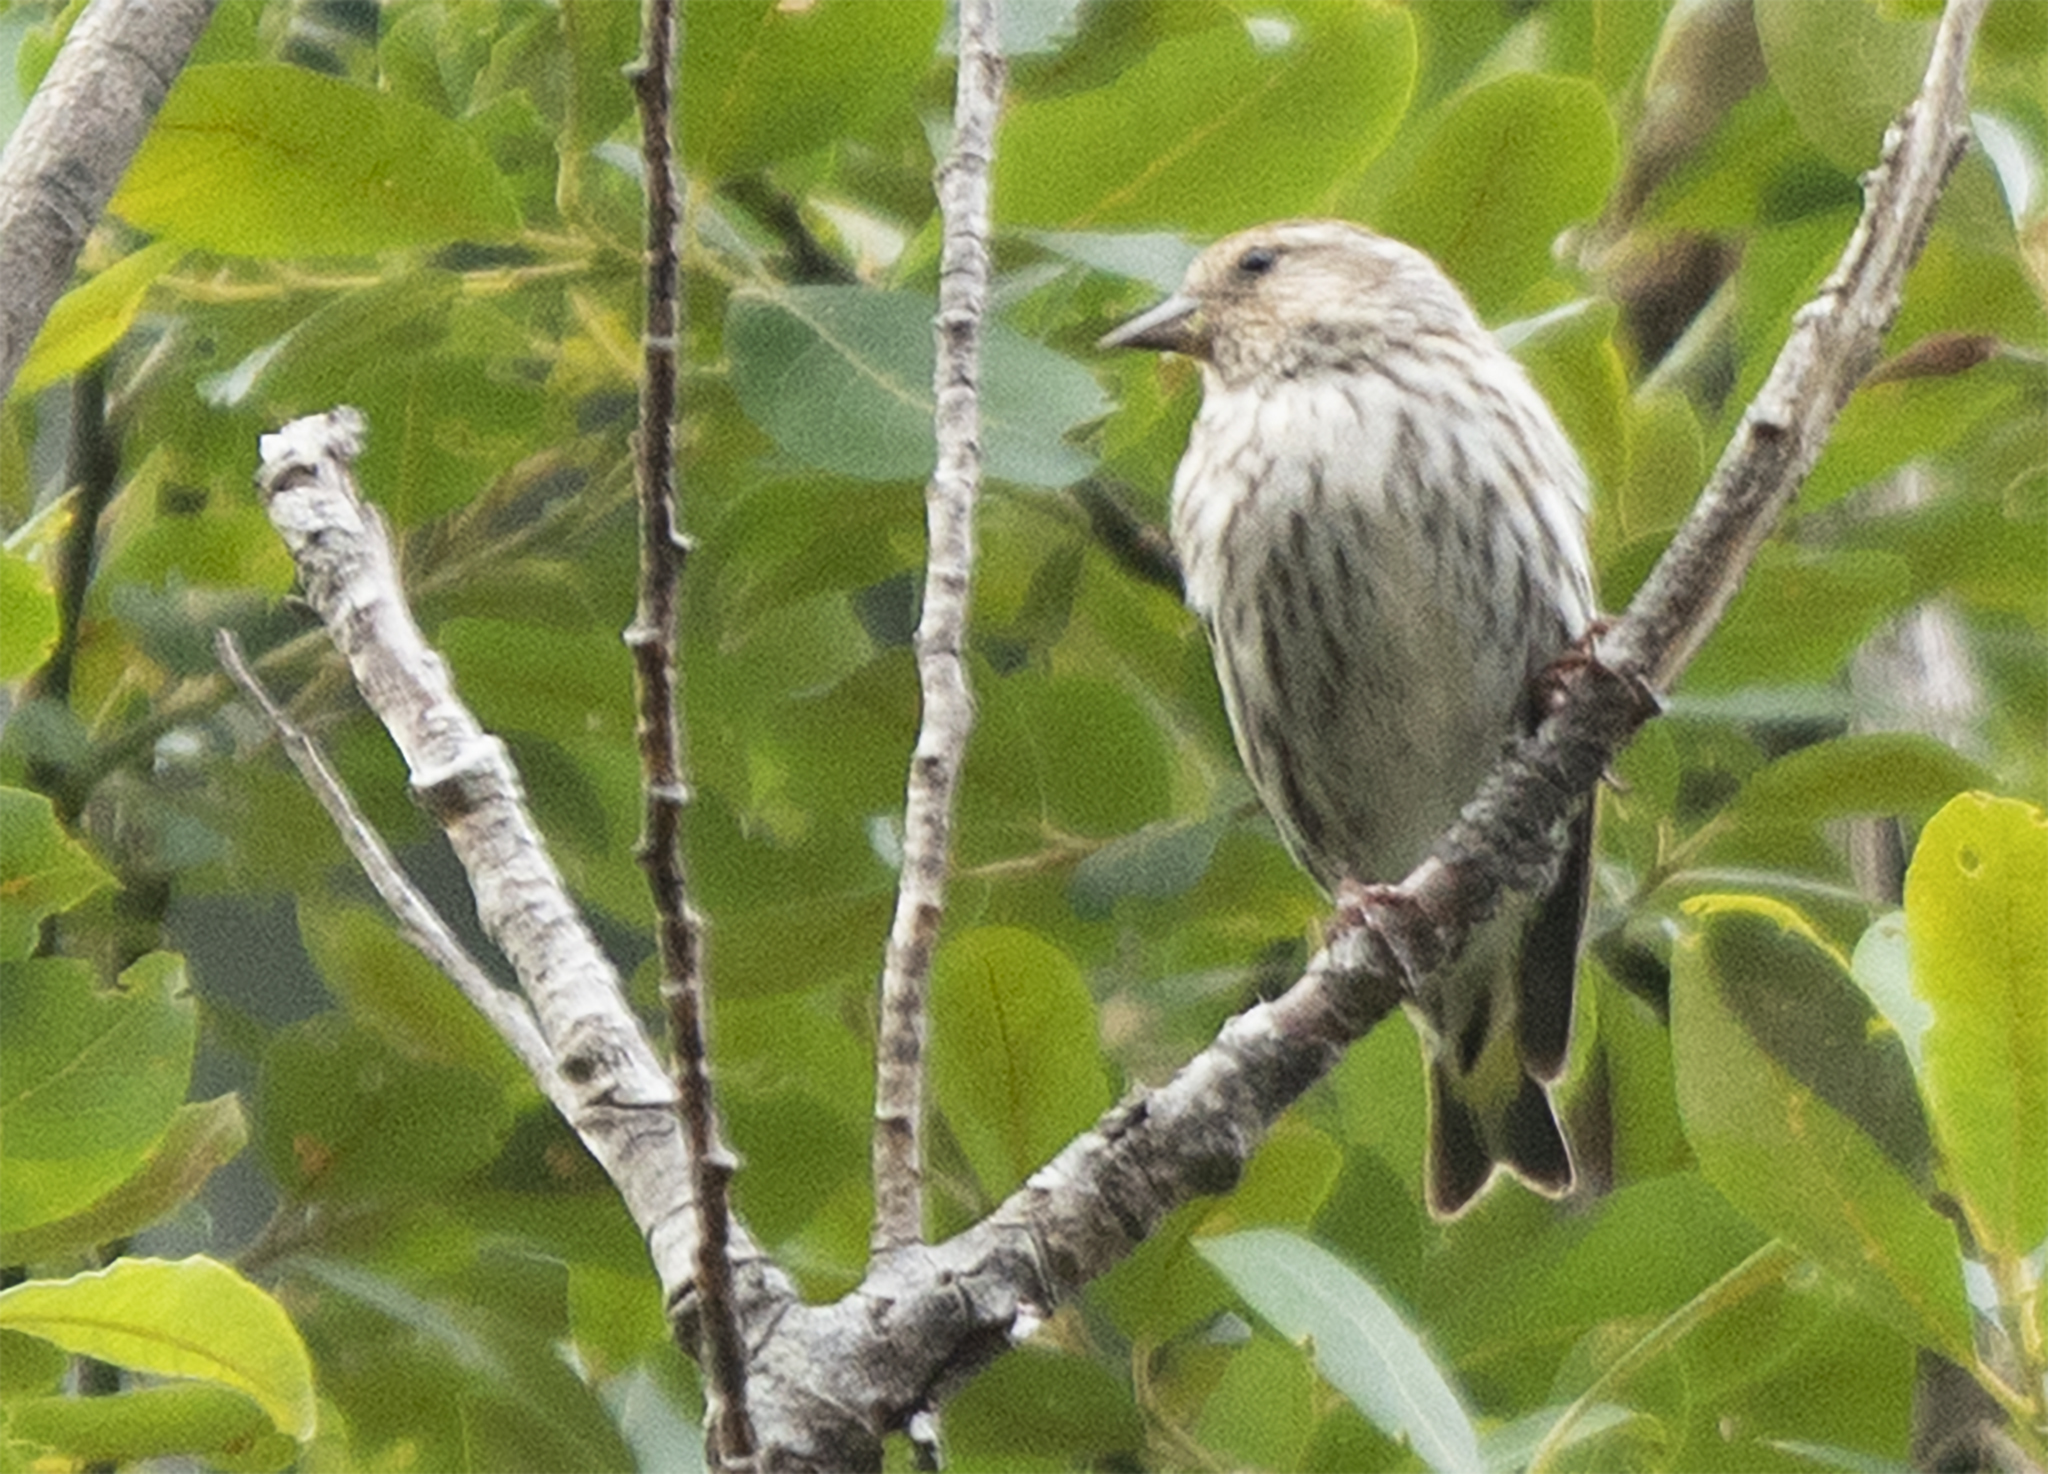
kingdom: Animalia
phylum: Chordata
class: Aves
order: Passeriformes
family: Fringillidae
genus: Spinus
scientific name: Spinus pinus
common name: Pine siskin
